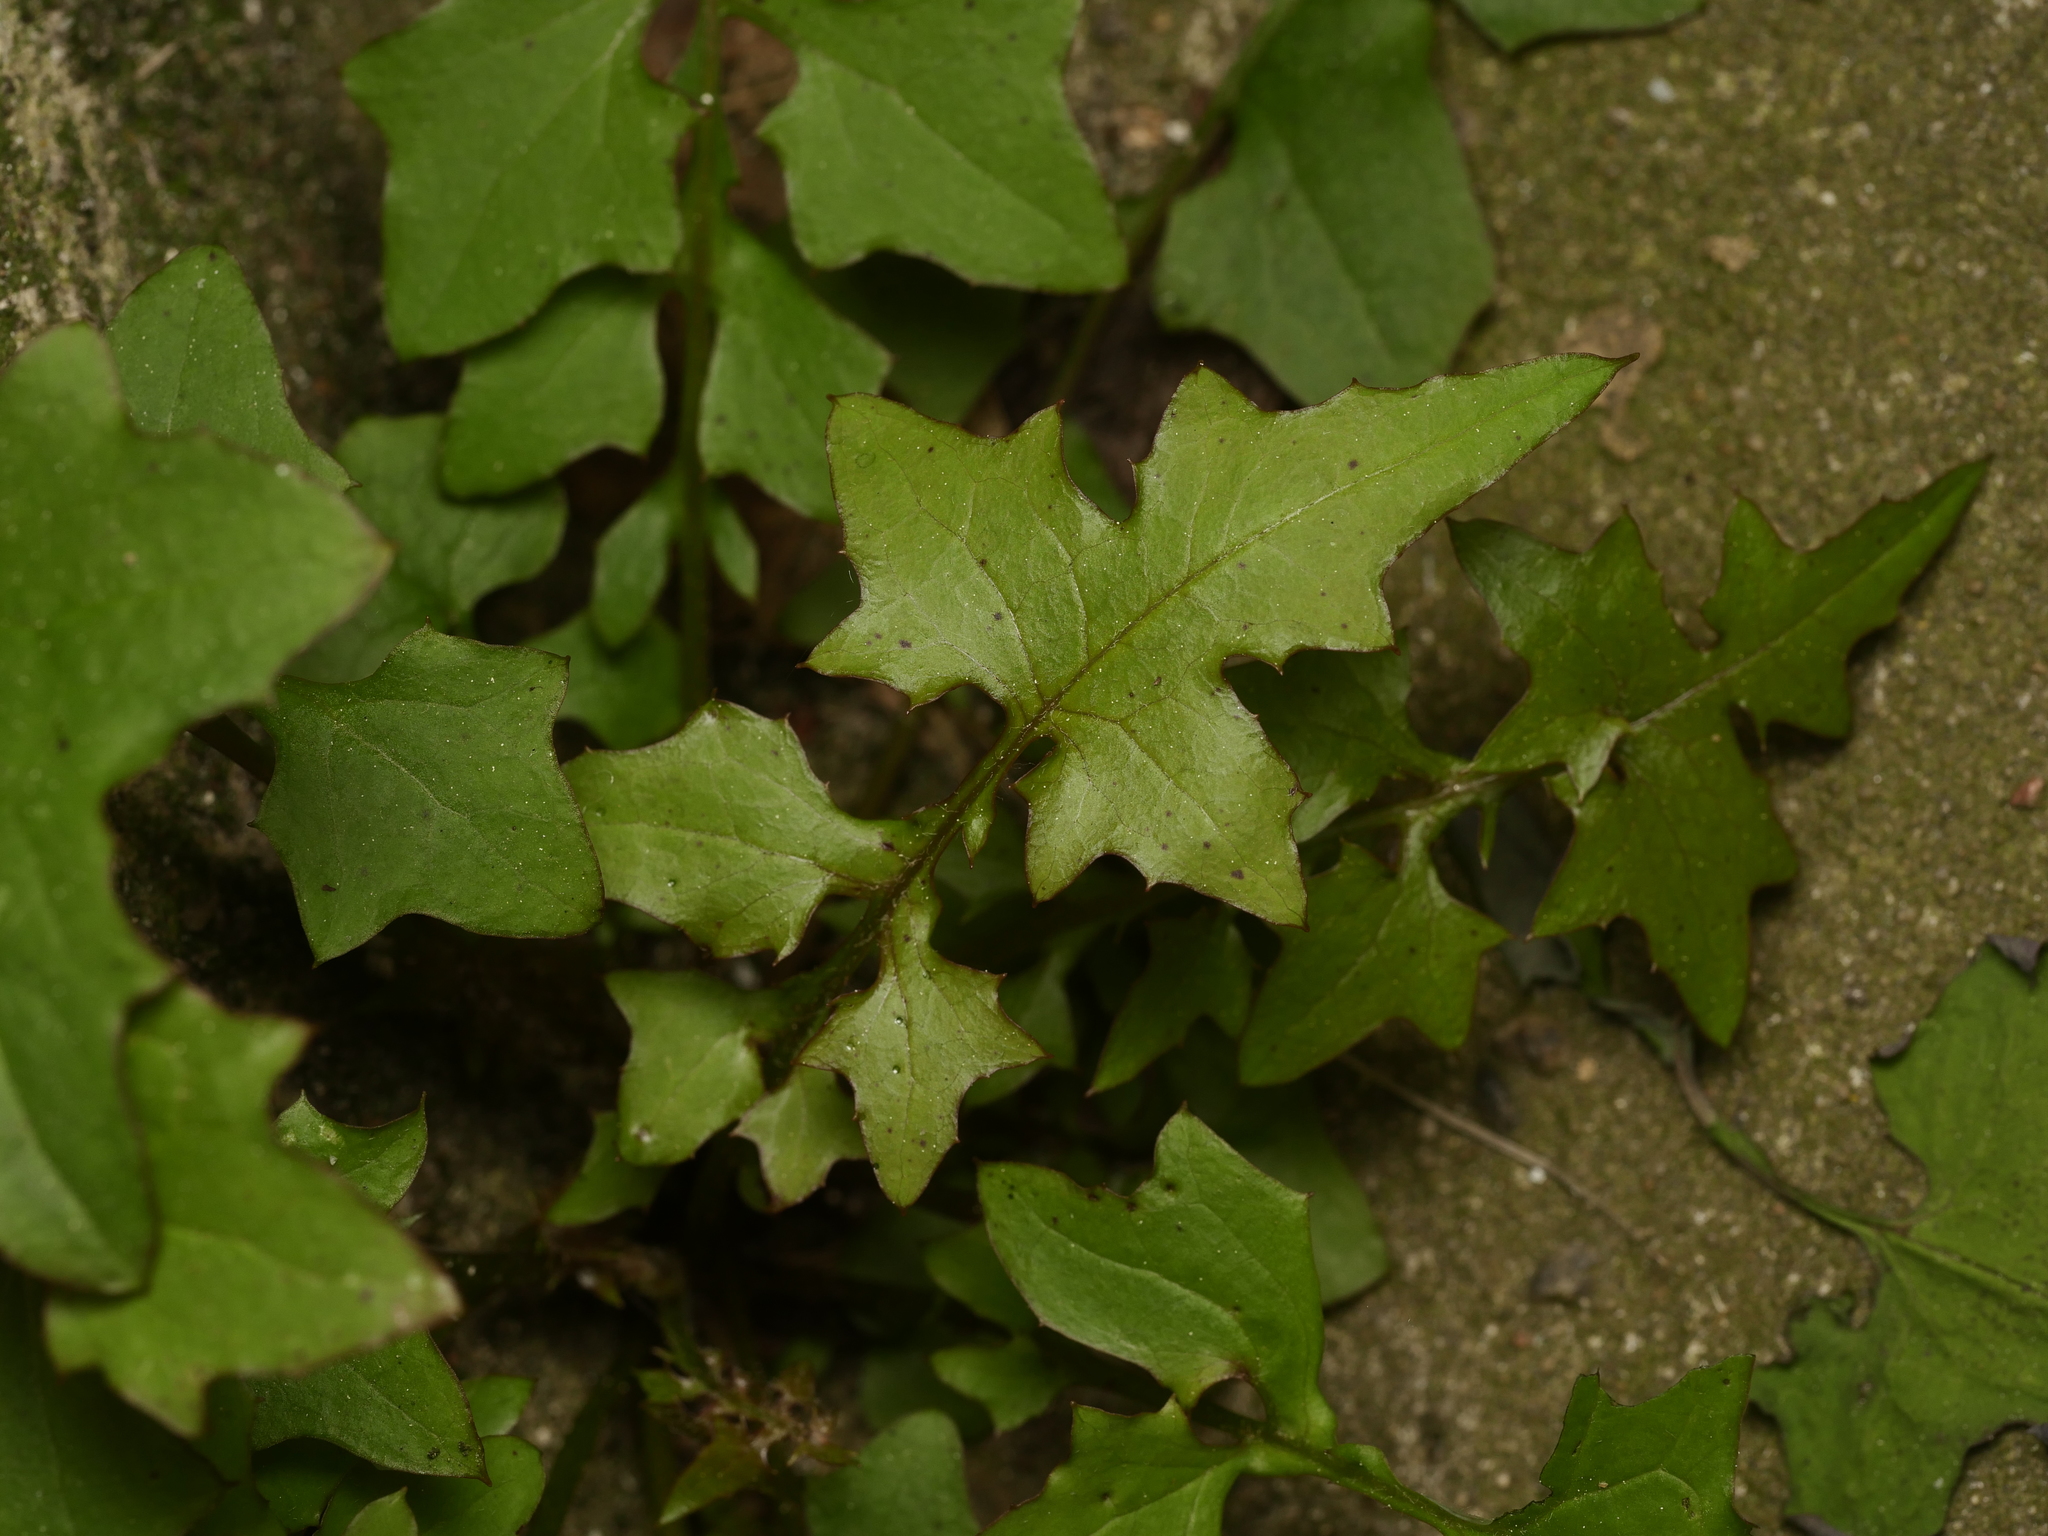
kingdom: Plantae
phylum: Tracheophyta
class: Magnoliopsida
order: Asterales
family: Asteraceae
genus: Mycelis
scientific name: Mycelis muralis
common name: Wall lettuce
